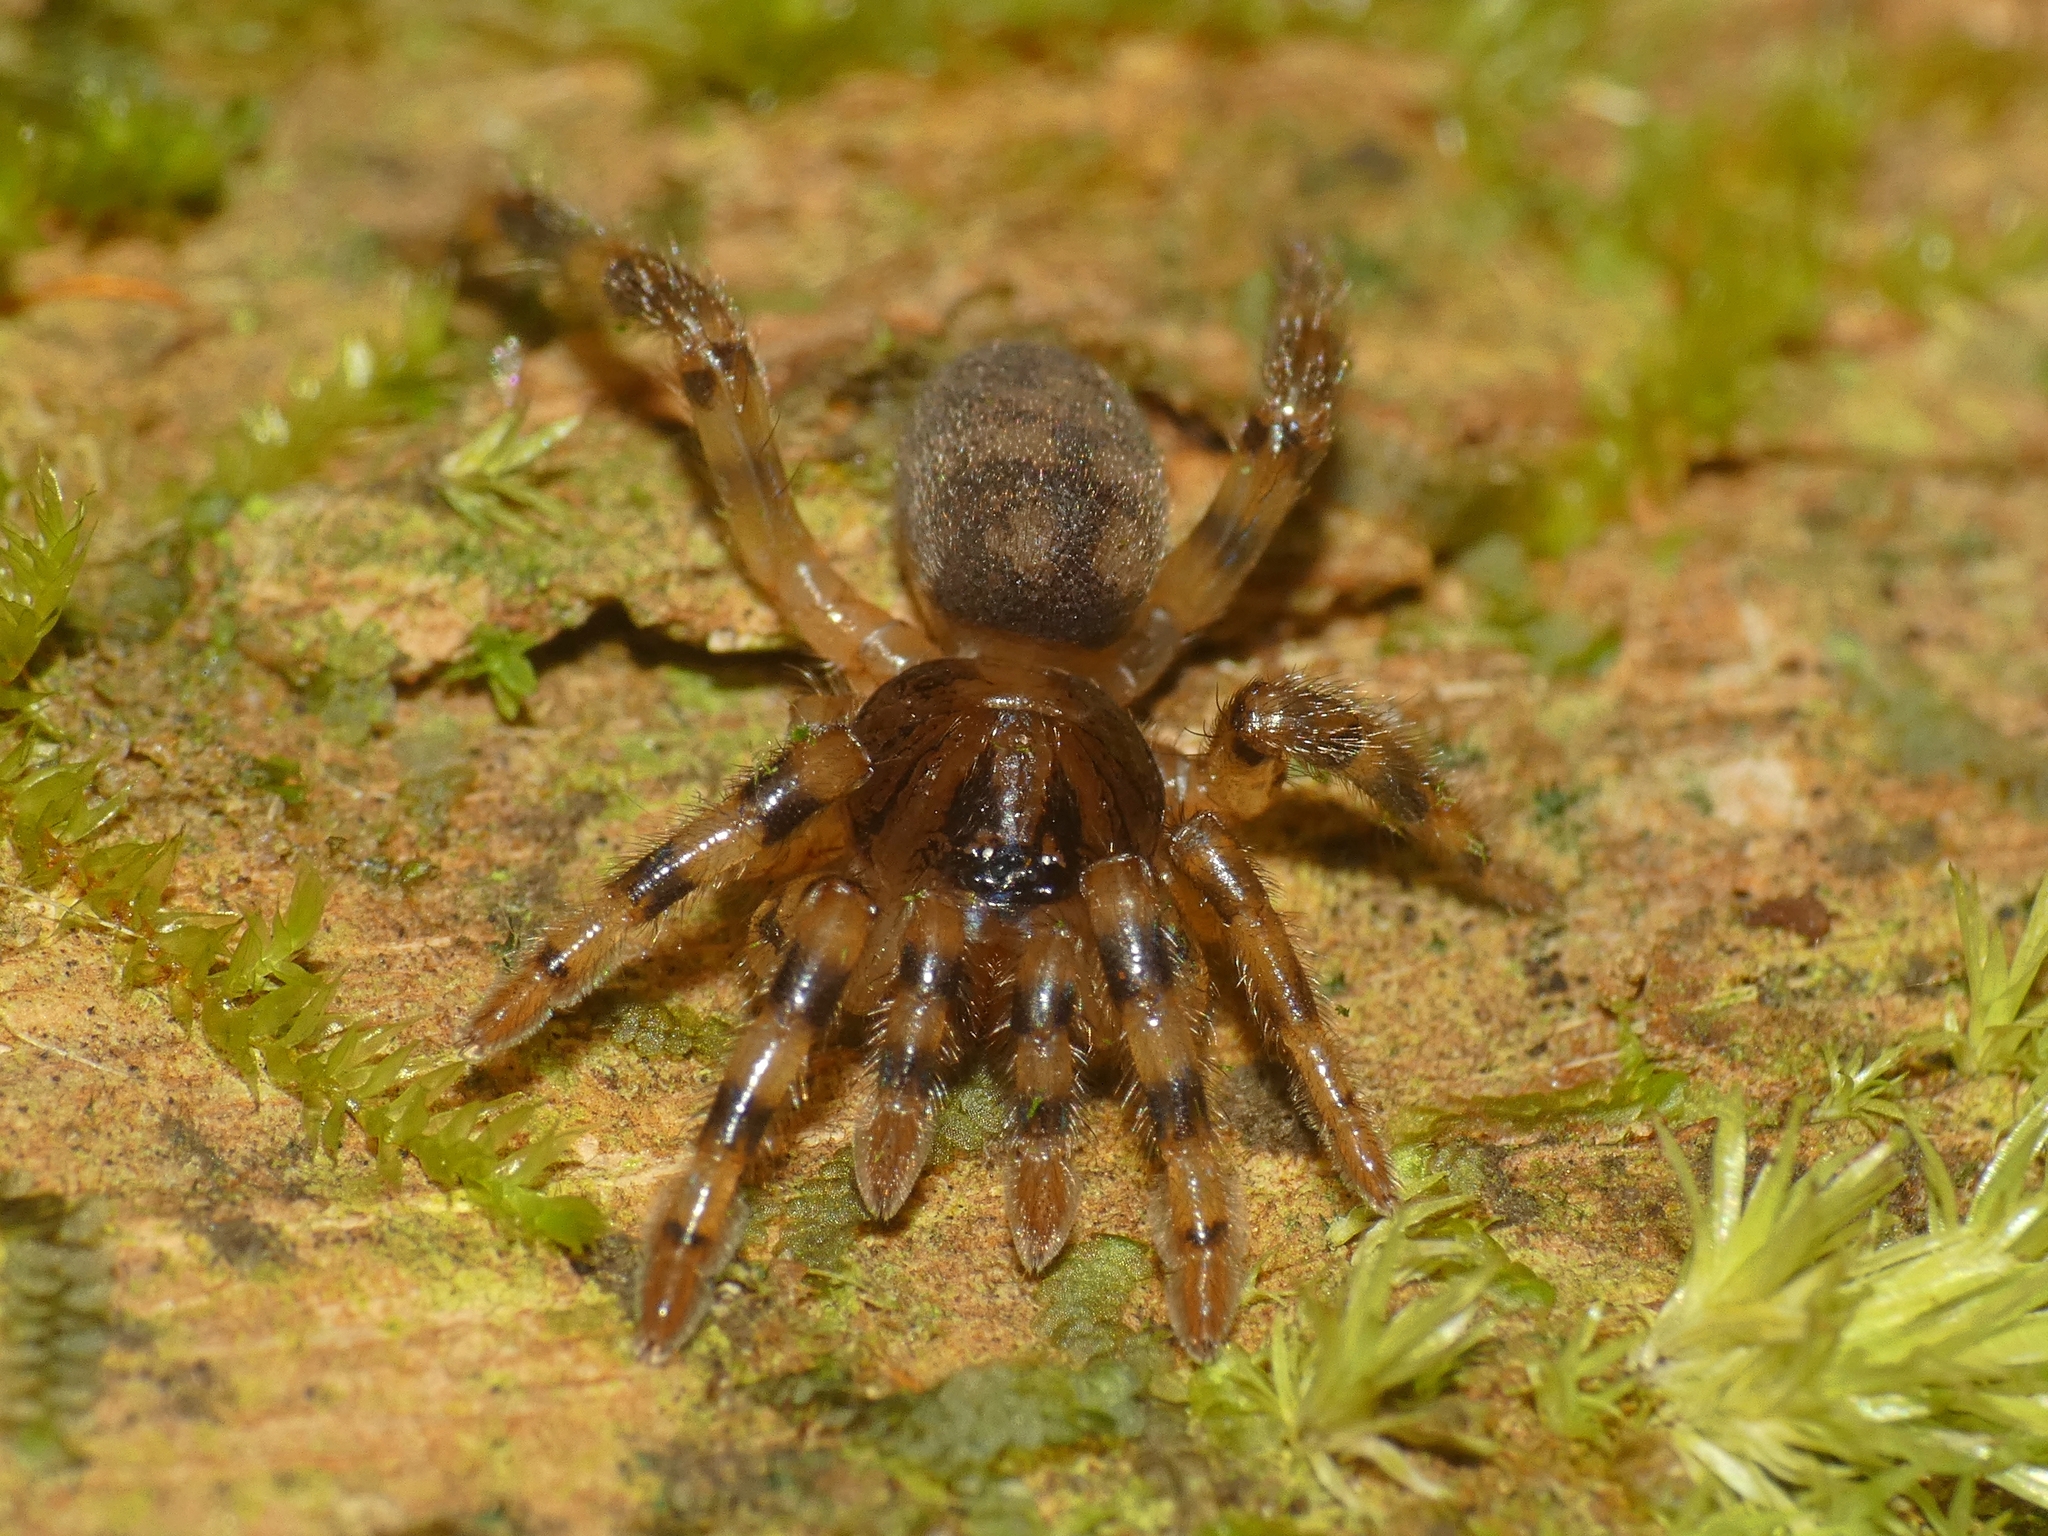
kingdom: Animalia
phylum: Arthropoda
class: Arachnida
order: Araneae
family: Barychelidae
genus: Sason
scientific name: Sason colemani
